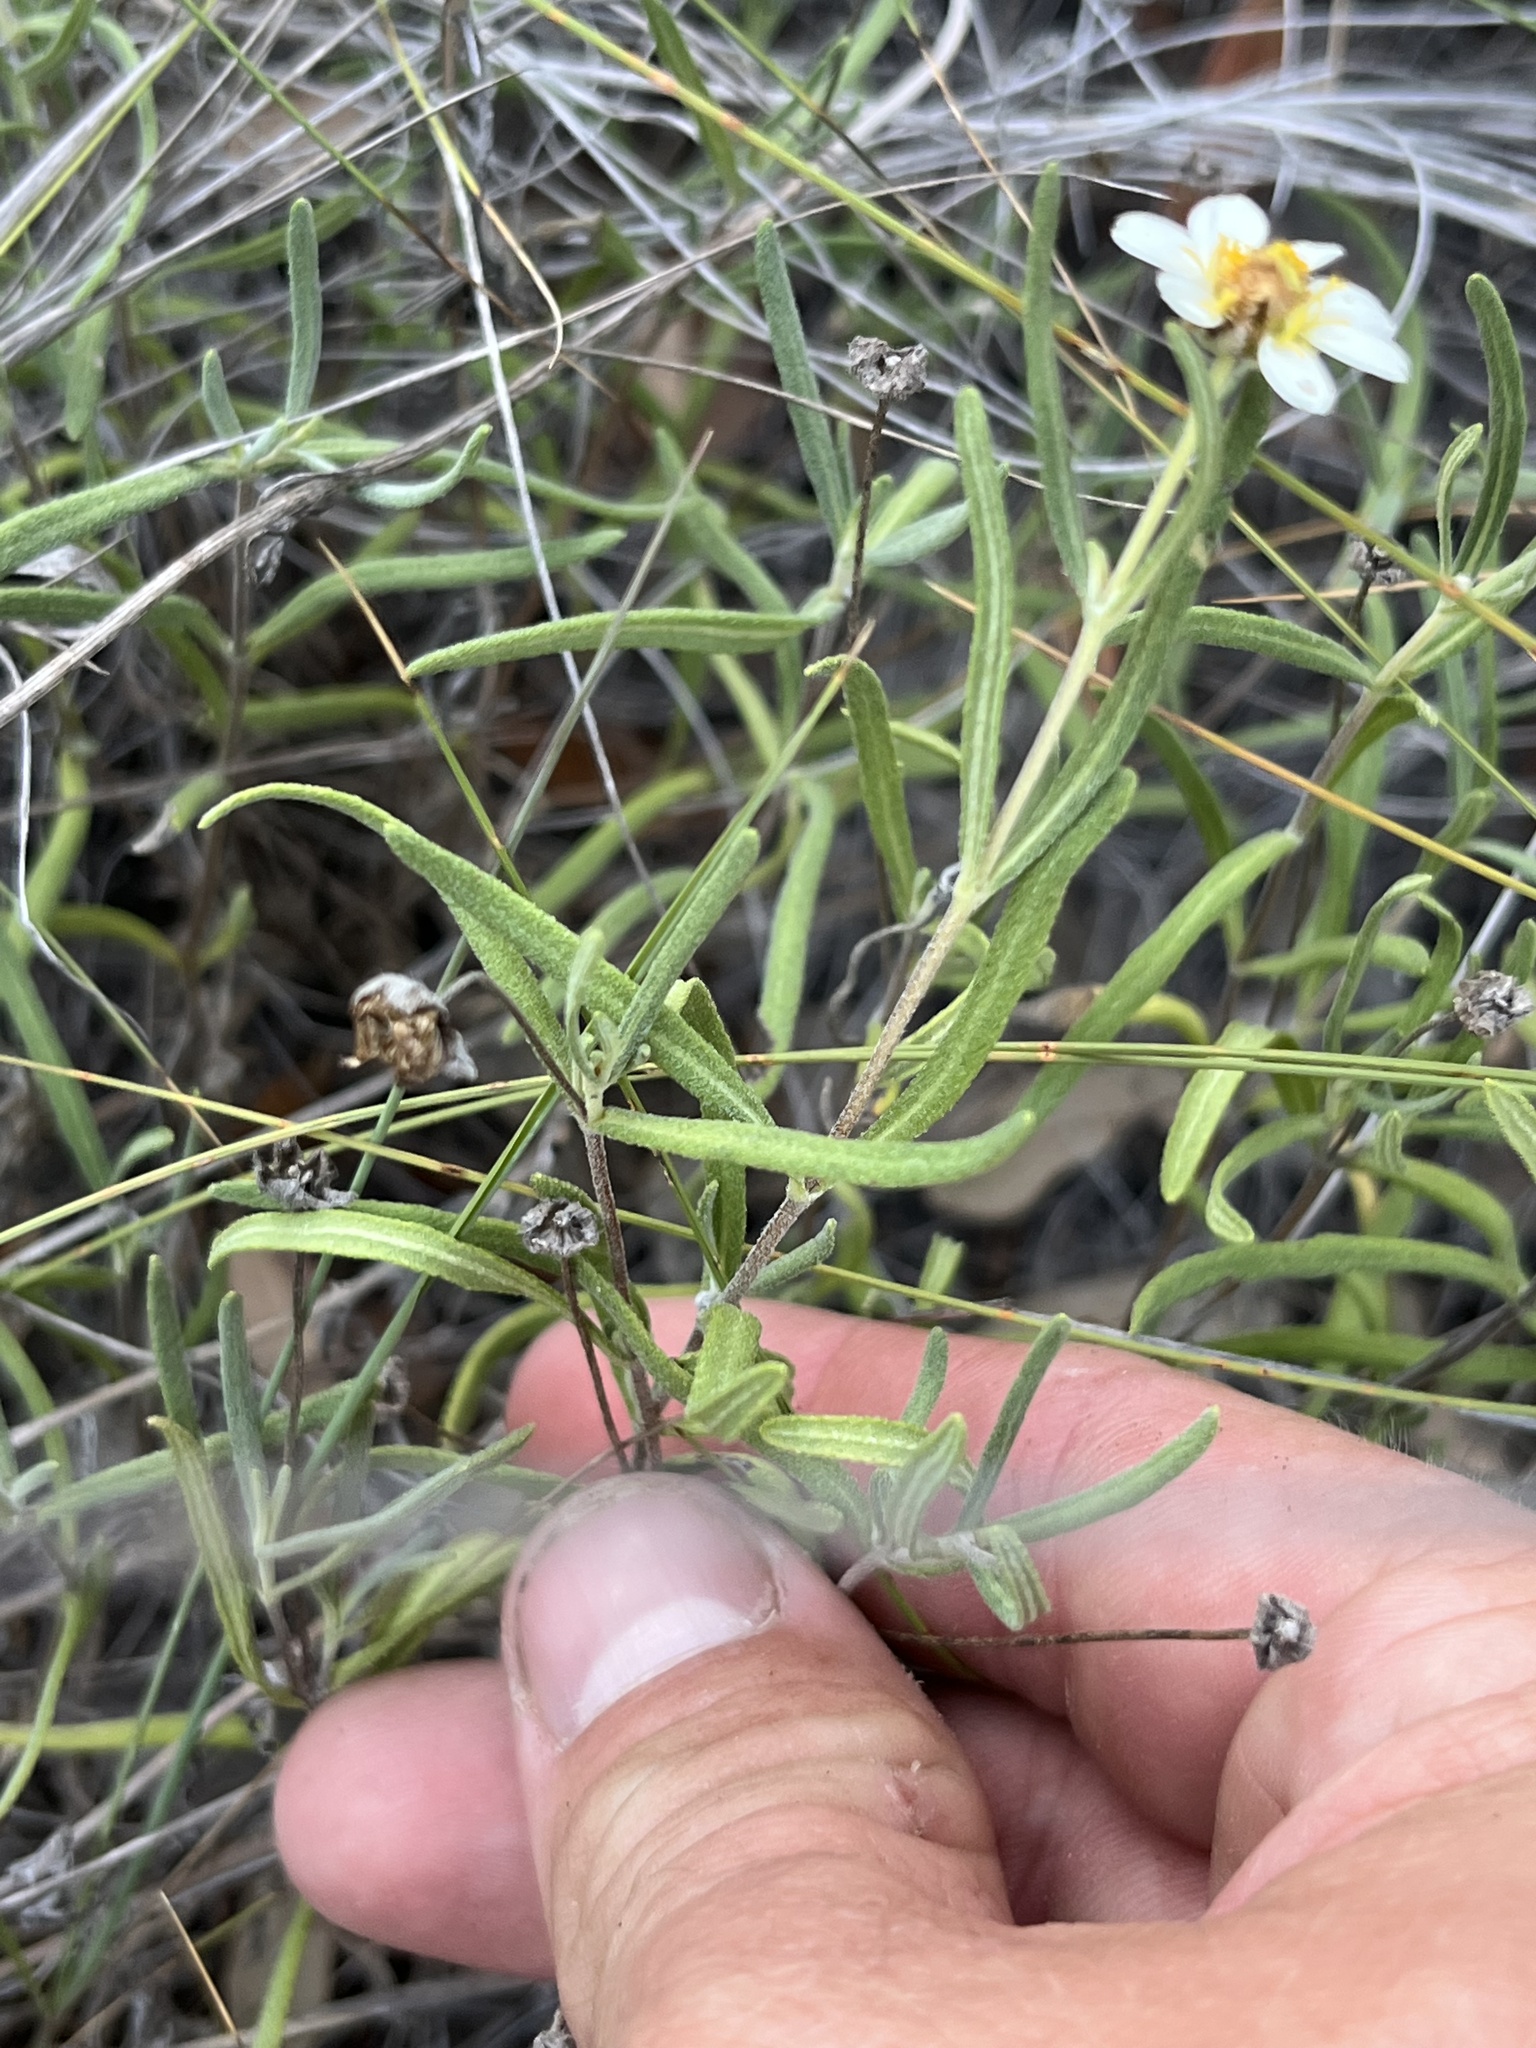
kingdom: Plantae
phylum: Tracheophyta
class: Magnoliopsida
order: Asterales
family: Asteraceae
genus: Melampodium
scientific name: Melampodium leucanthum
